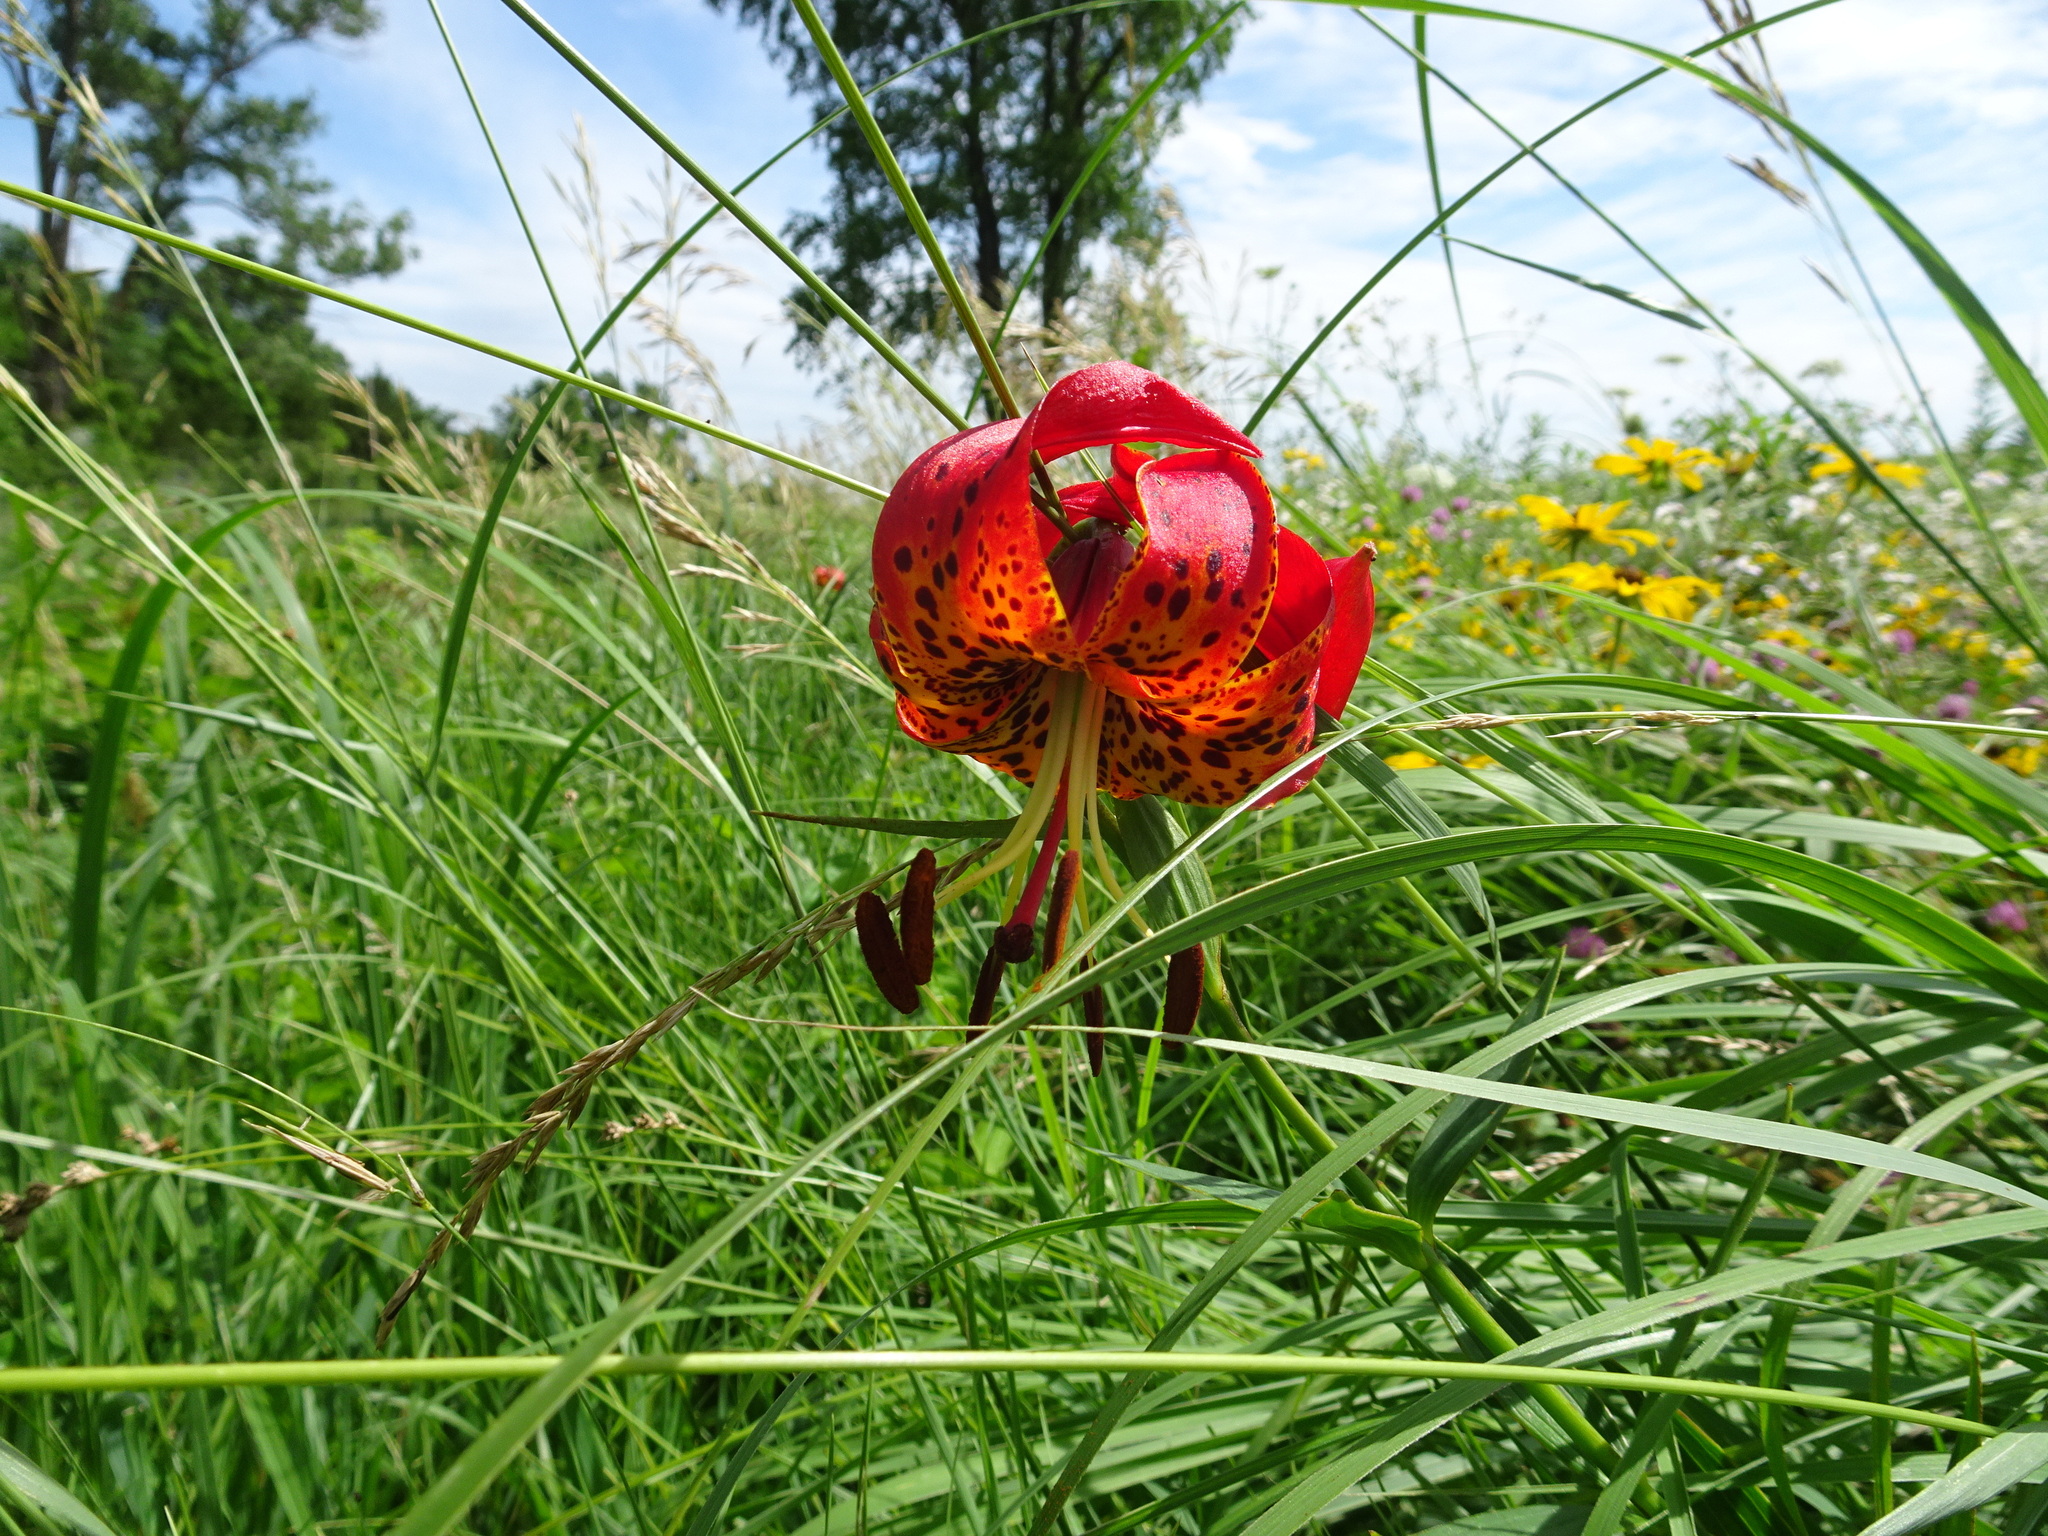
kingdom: Plantae
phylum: Tracheophyta
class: Liliopsida
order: Liliales
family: Liliaceae
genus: Lilium
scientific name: Lilium michiganense
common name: Michigan lily
